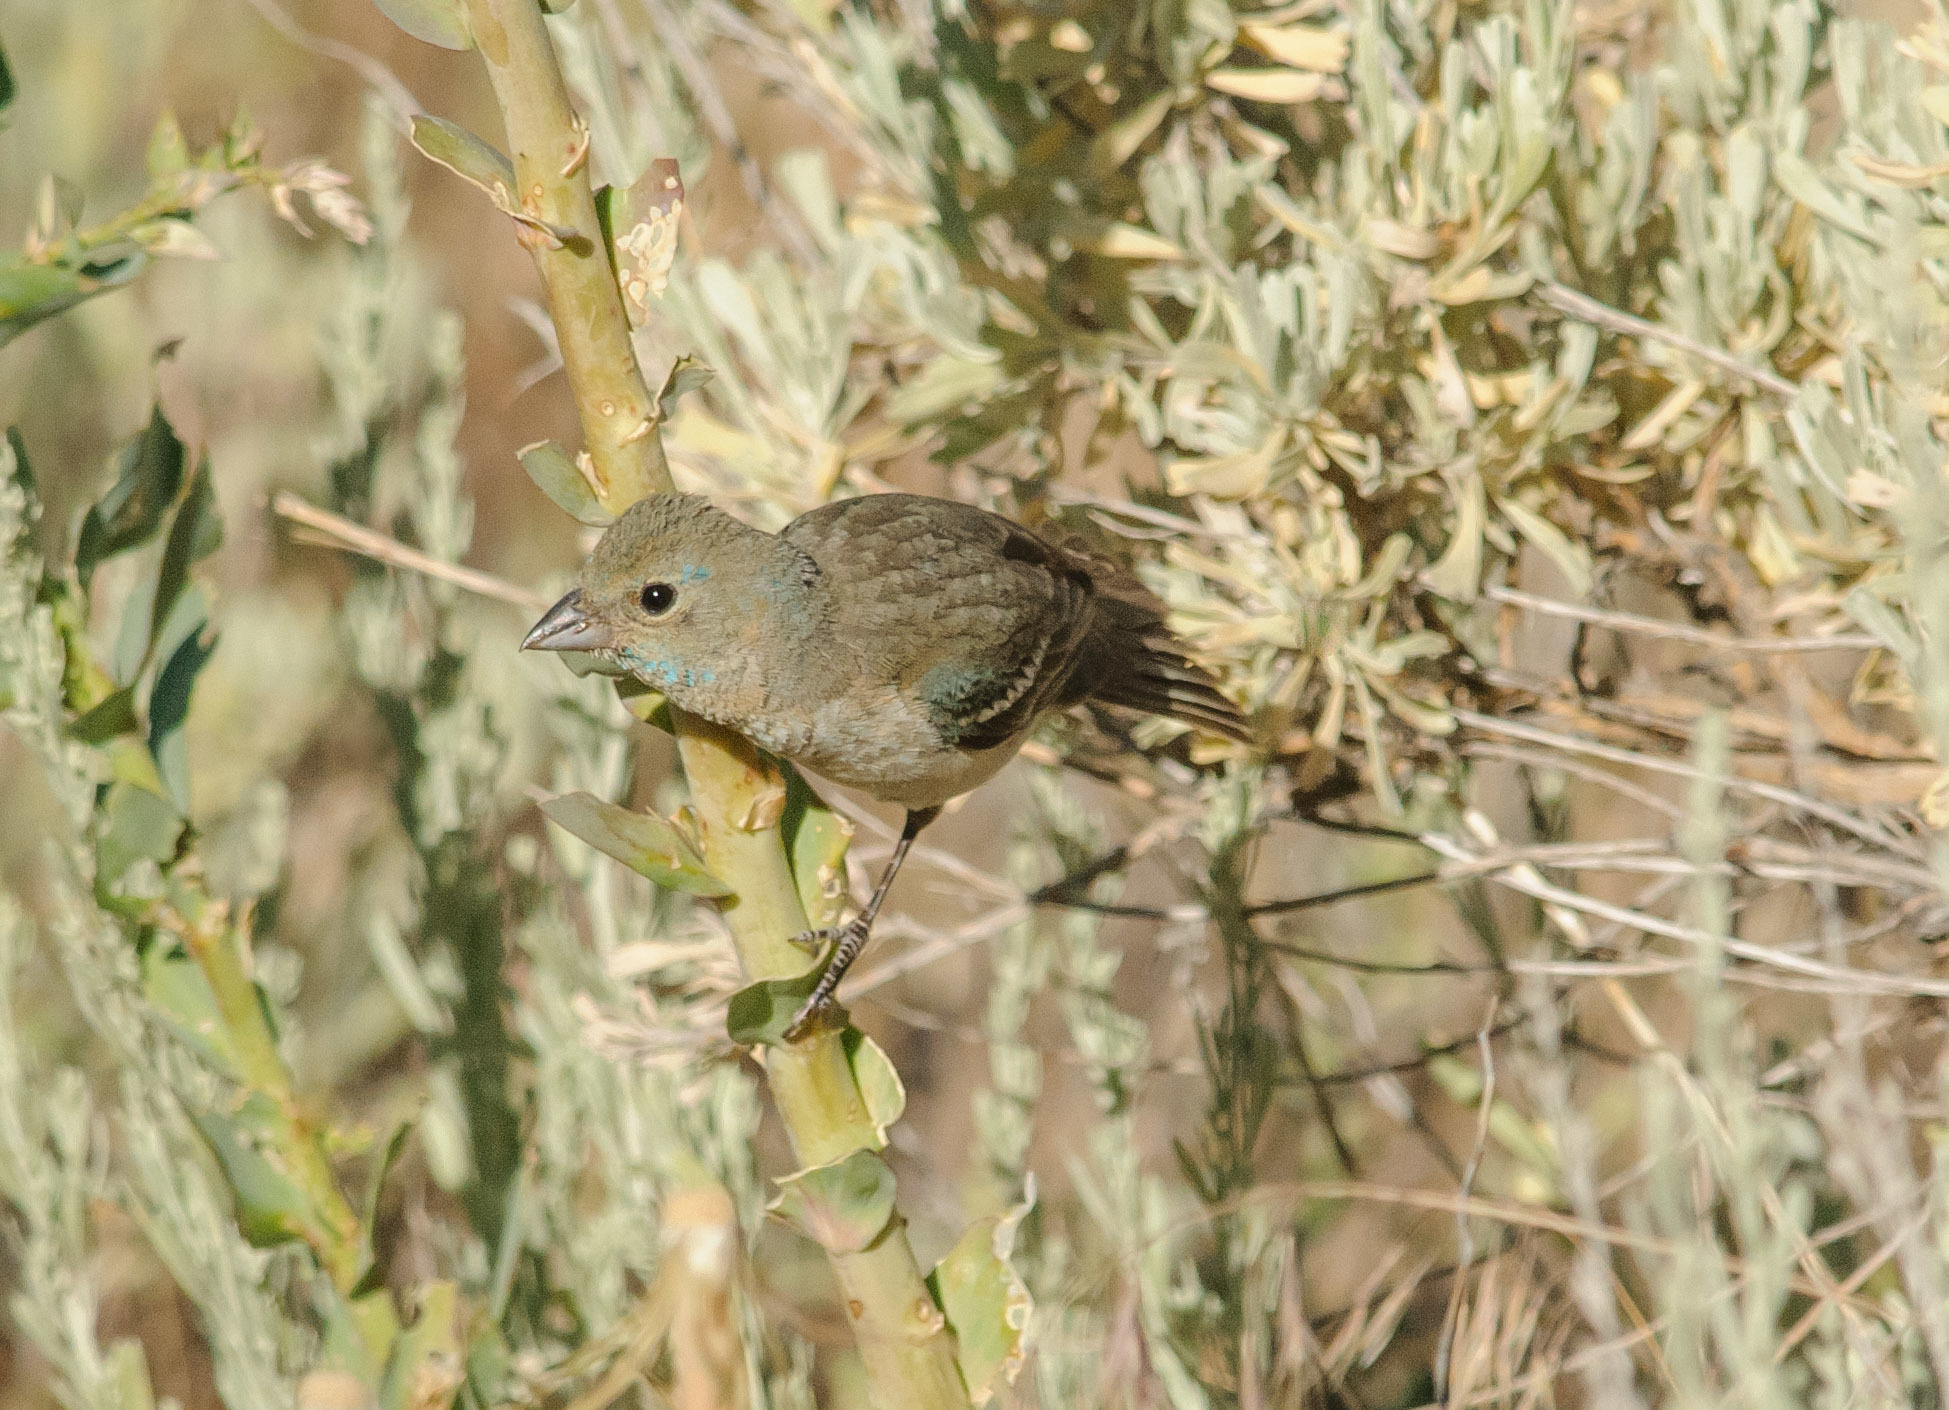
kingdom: Animalia
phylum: Chordata
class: Aves
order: Passeriformes
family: Cardinalidae
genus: Passerina
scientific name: Passerina amoena
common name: Lazuli bunting
